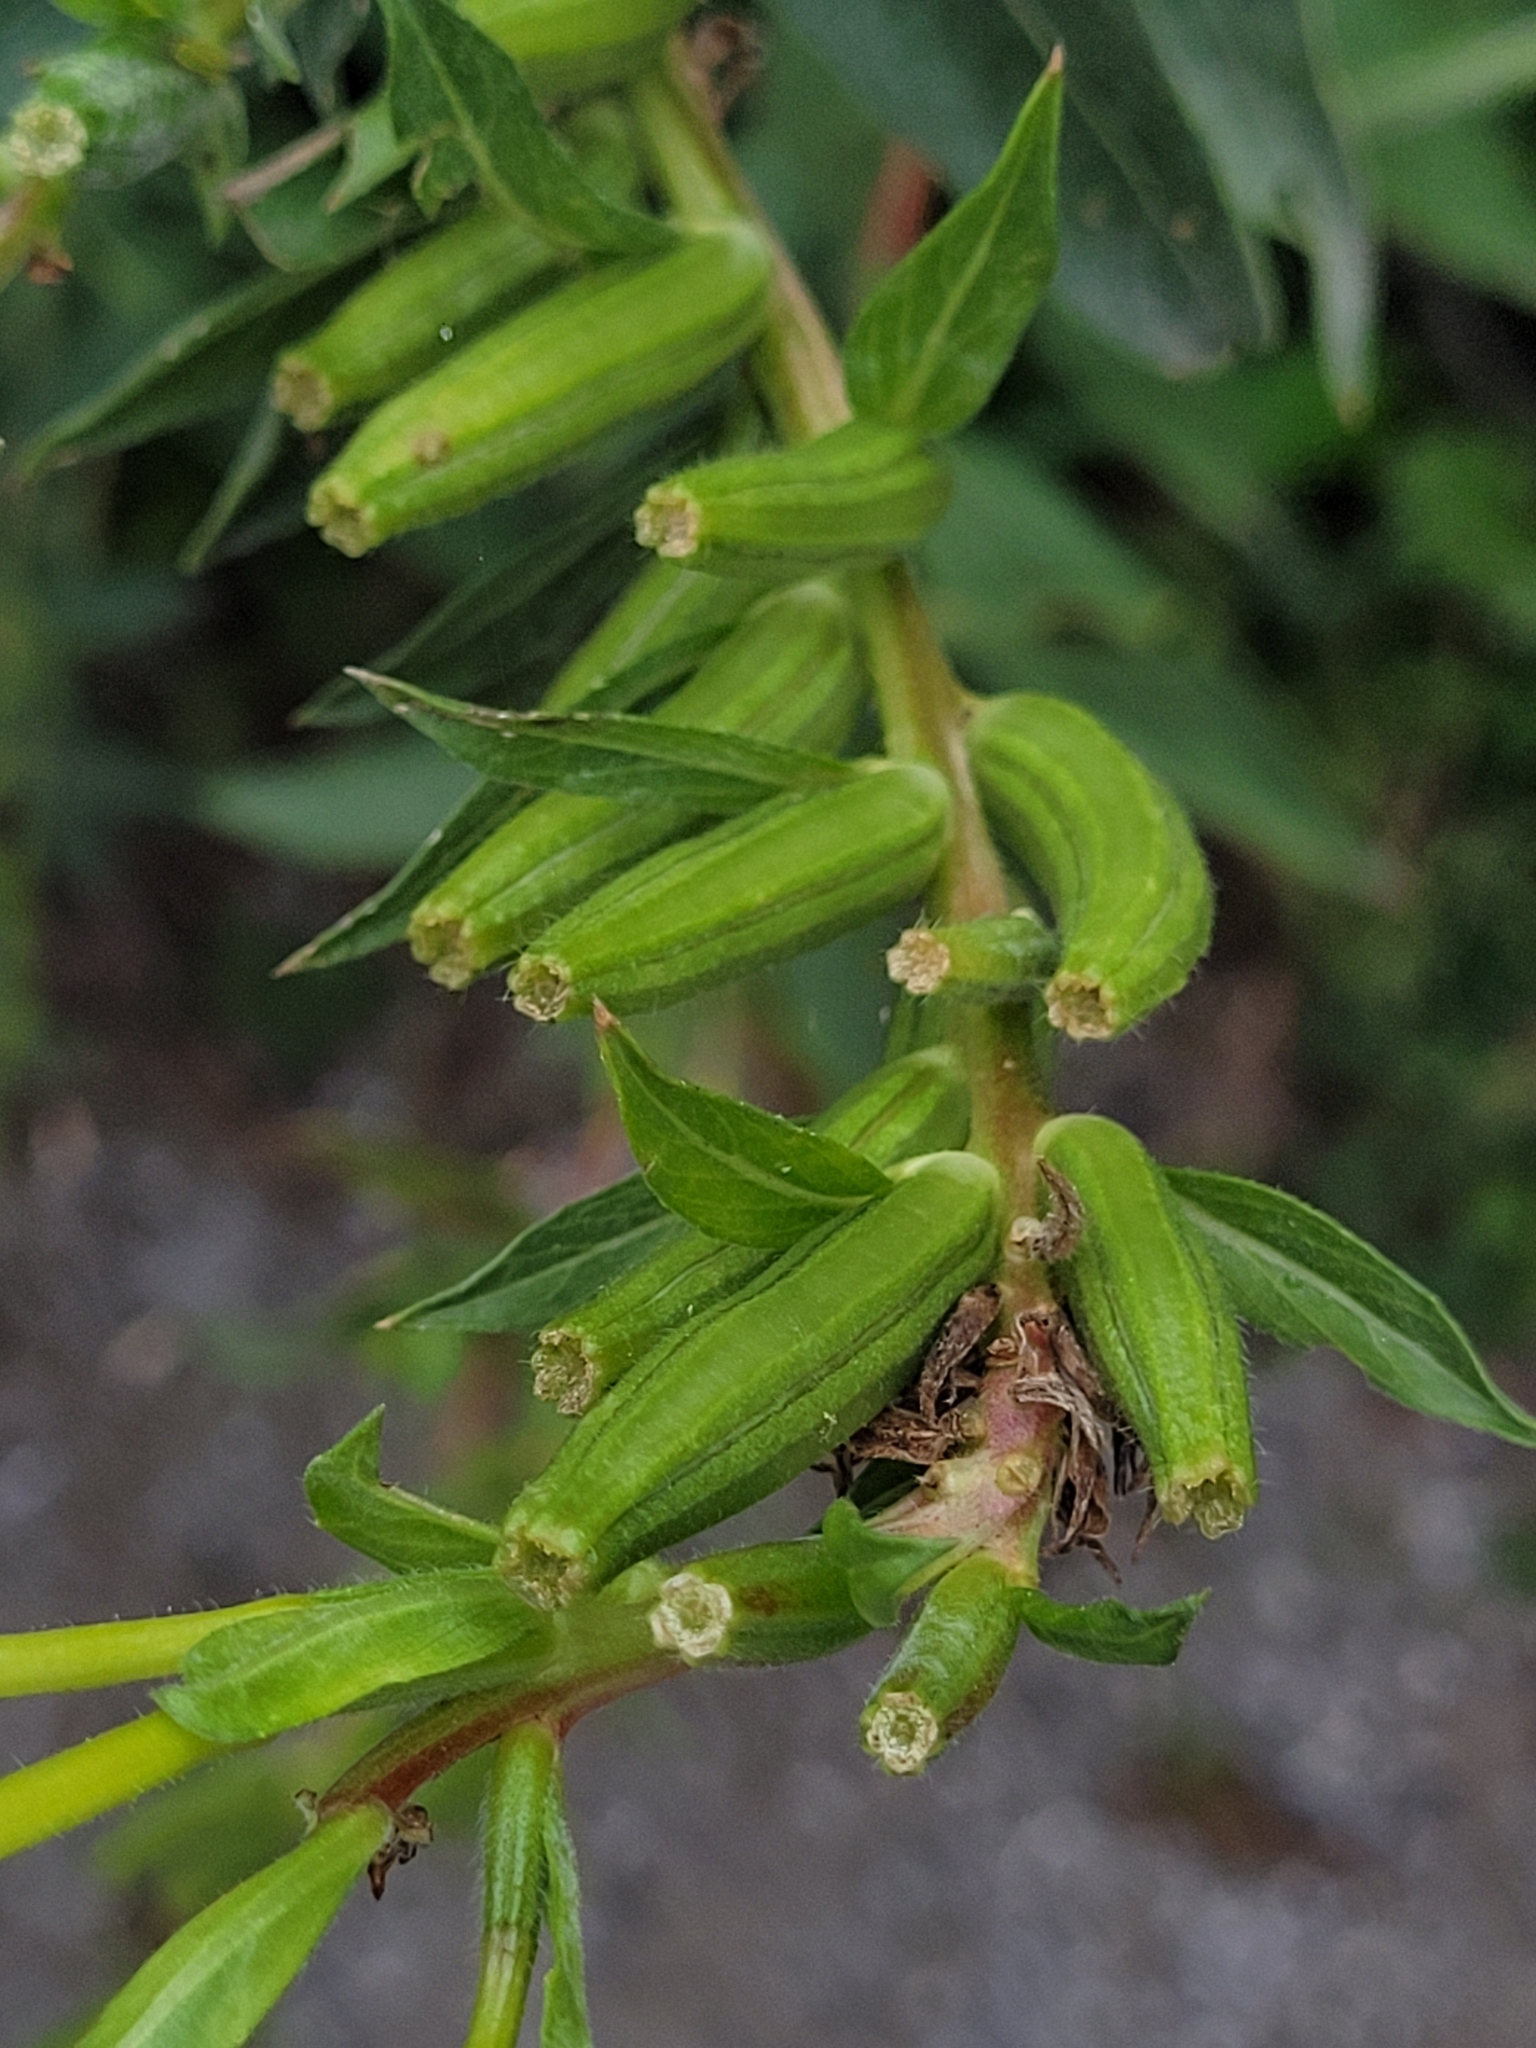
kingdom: Plantae
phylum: Tracheophyta
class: Magnoliopsida
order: Myrtales
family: Onagraceae
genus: Oenothera
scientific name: Oenothera biennis
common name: Common evening-primrose
